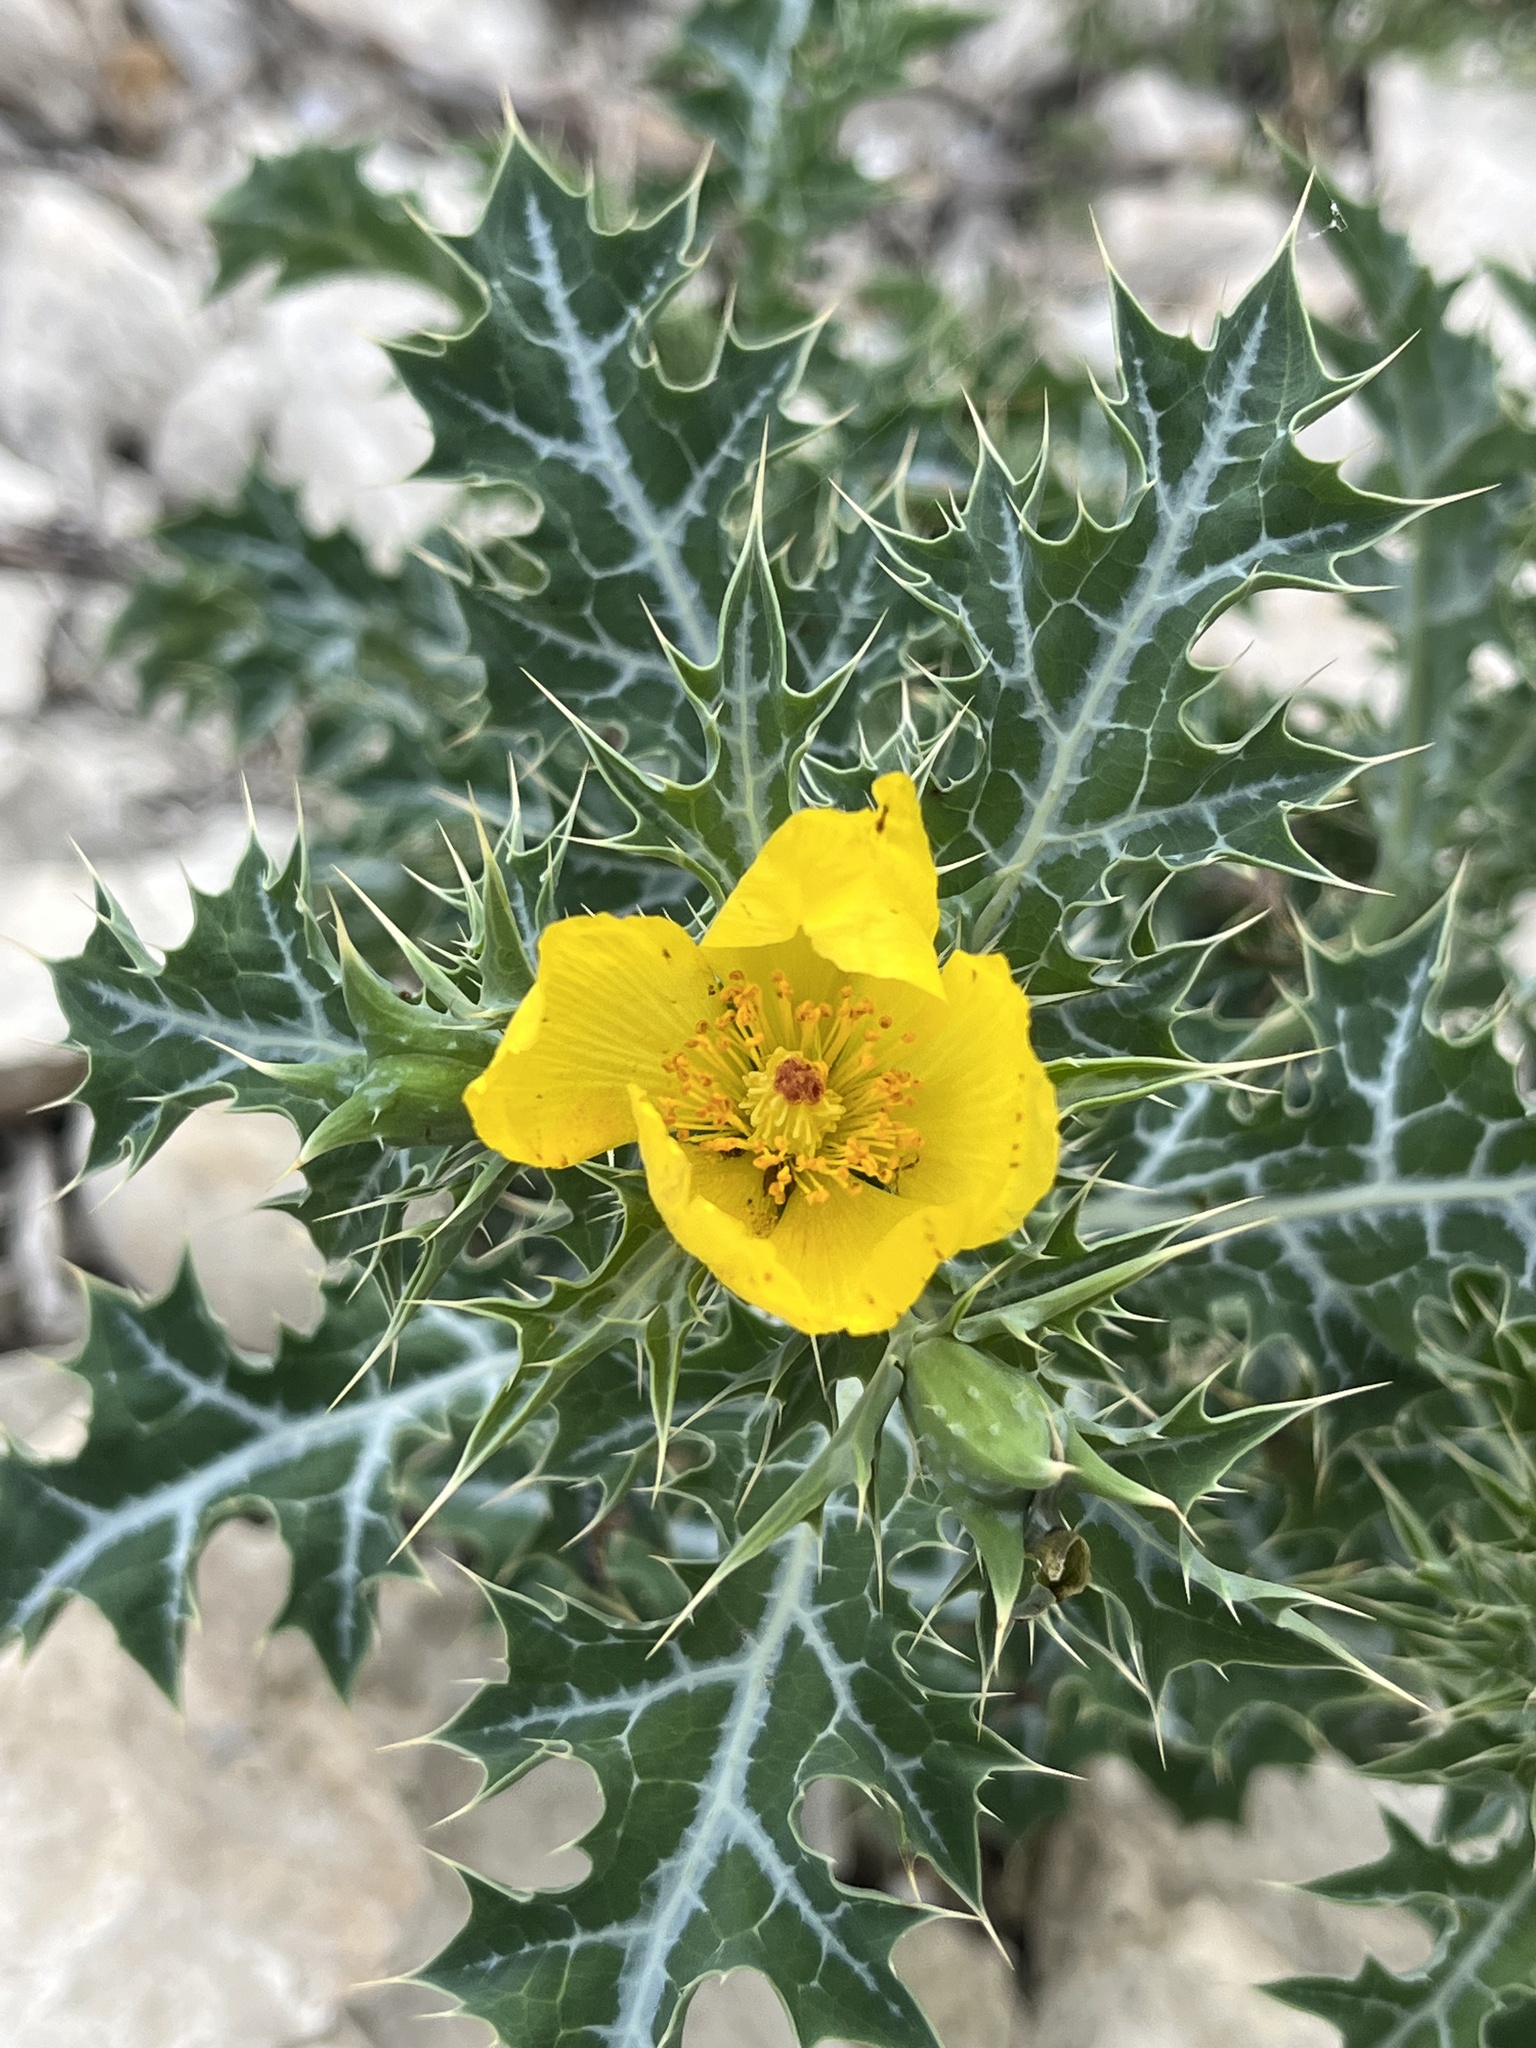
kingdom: Plantae
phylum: Tracheophyta
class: Magnoliopsida
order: Ranunculales
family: Papaveraceae
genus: Argemone
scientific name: Argemone mexicana
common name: Mexican poppy
